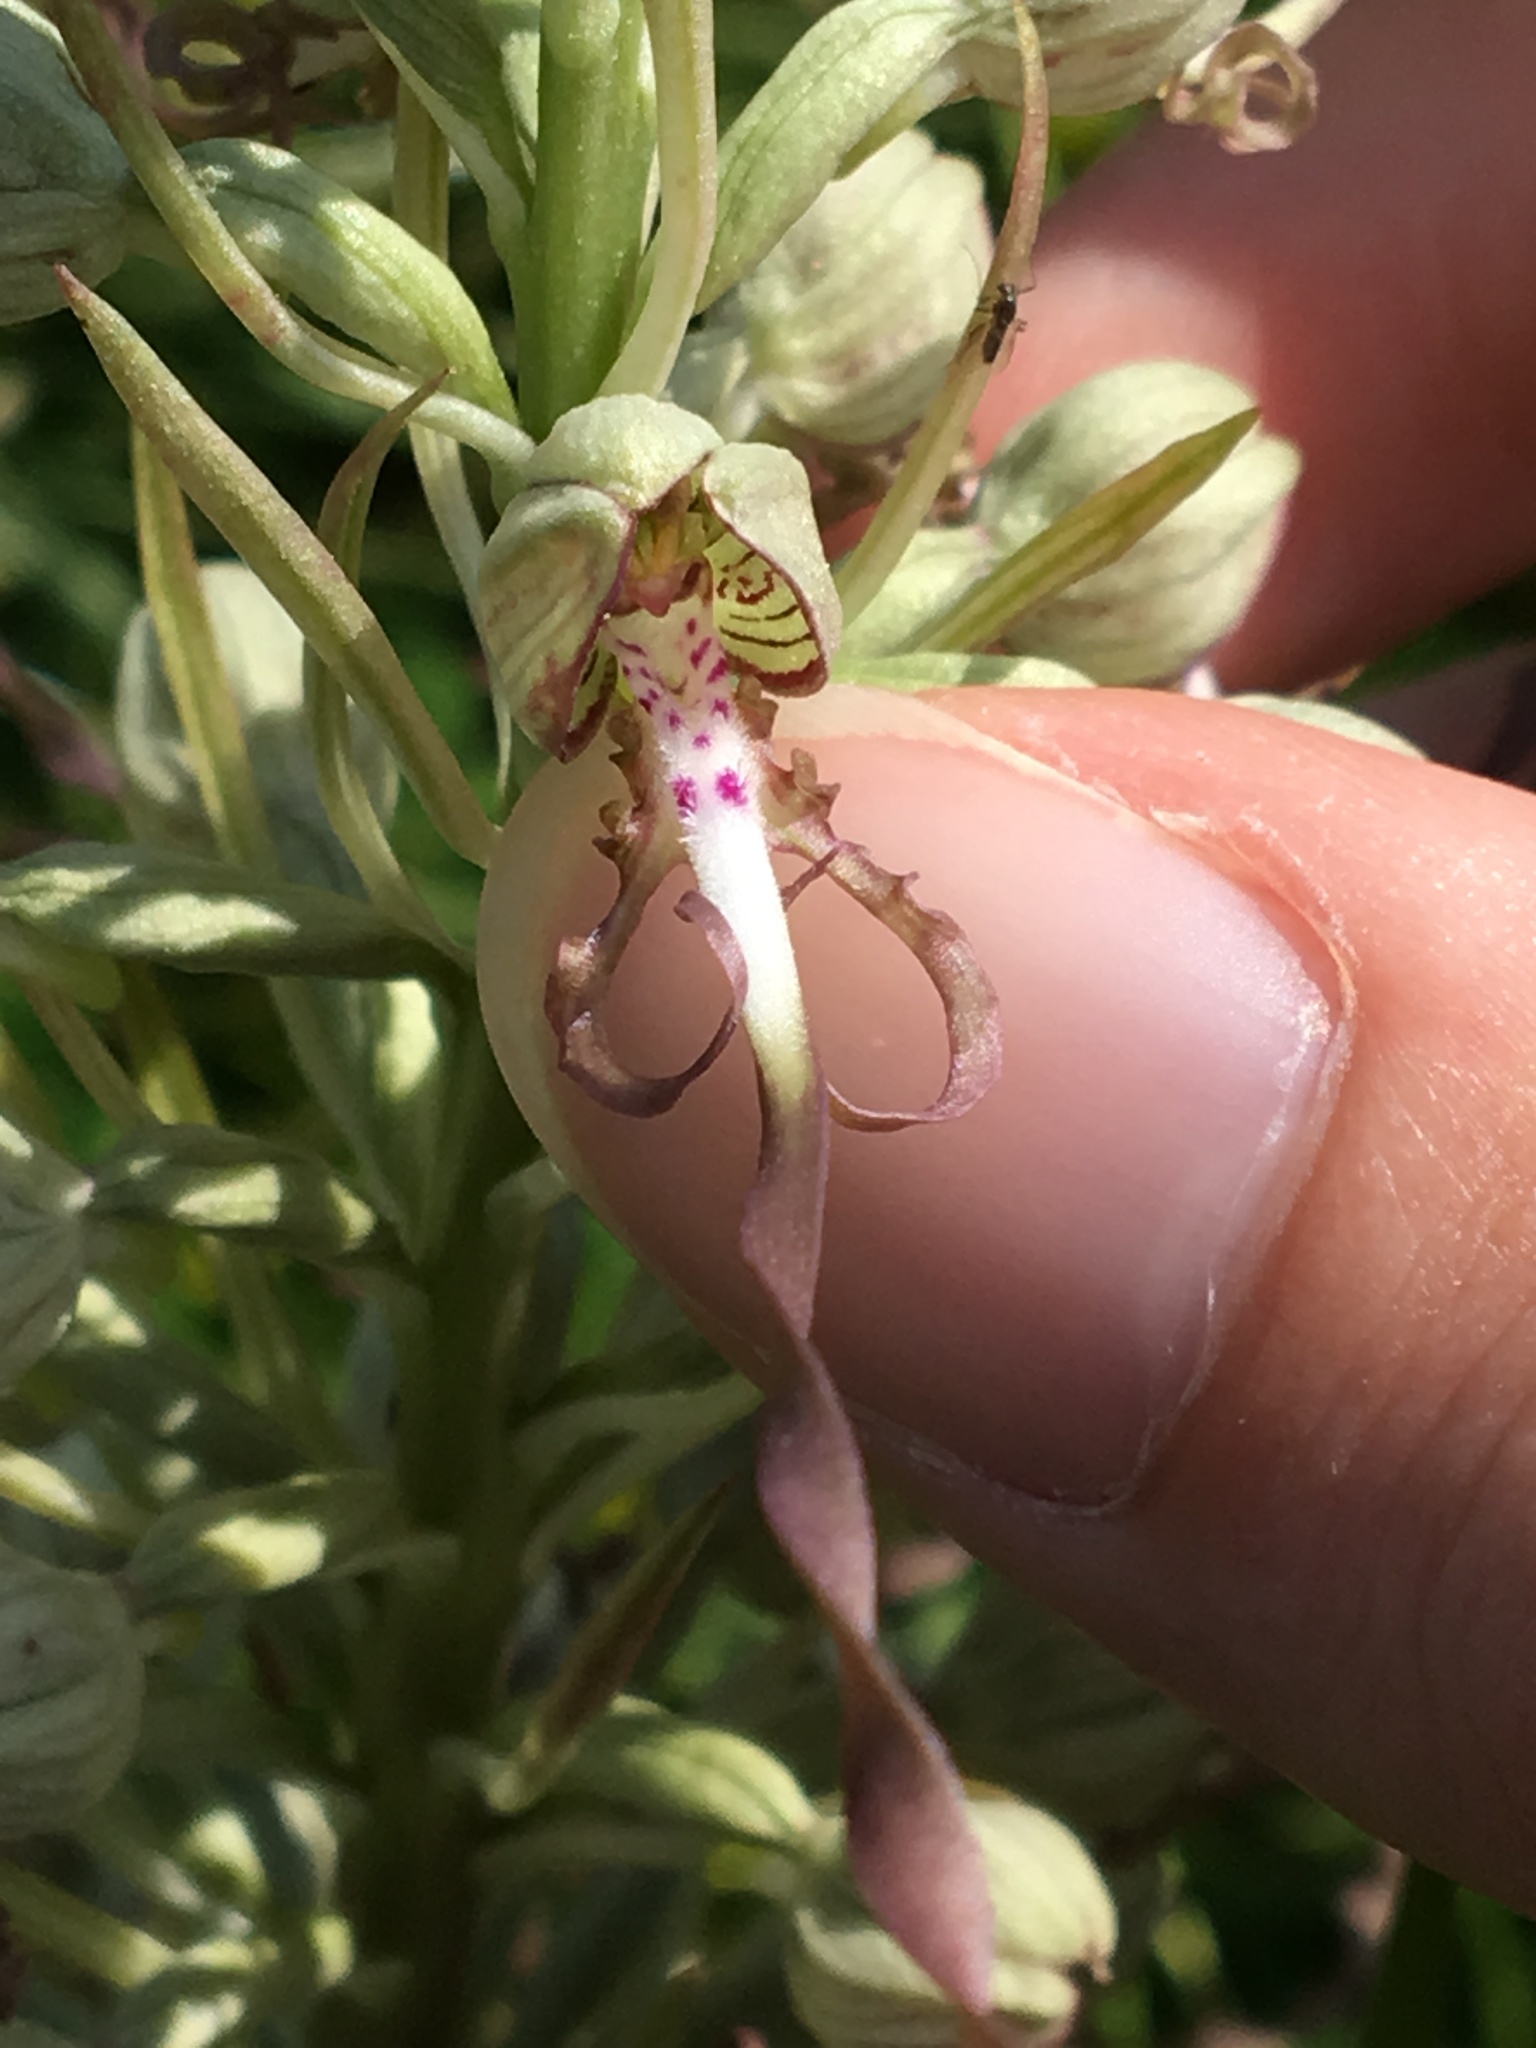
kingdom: Plantae
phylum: Tracheophyta
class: Liliopsida
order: Asparagales
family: Orchidaceae
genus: Himantoglossum
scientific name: Himantoglossum hircinum
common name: Lizard orchid
